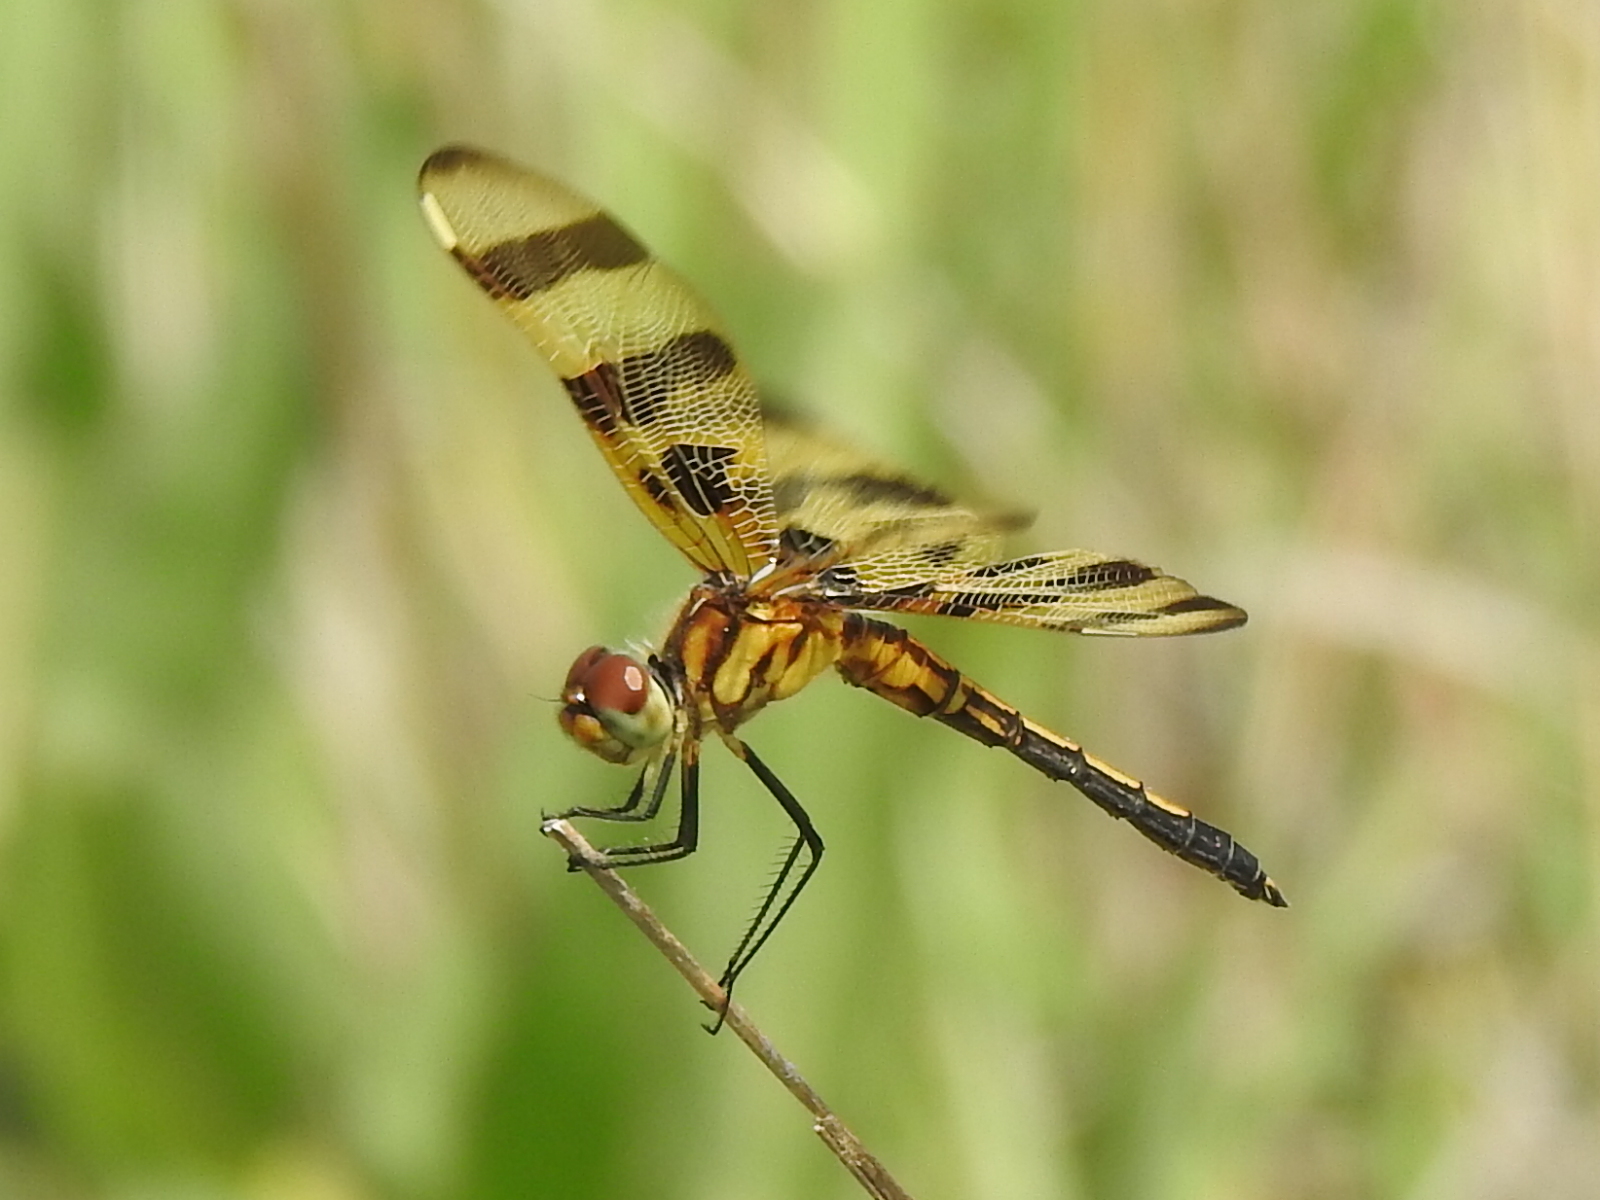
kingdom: Animalia
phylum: Arthropoda
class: Insecta
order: Odonata
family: Libellulidae
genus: Celithemis
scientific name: Celithemis eponina
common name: Halloween pennant
